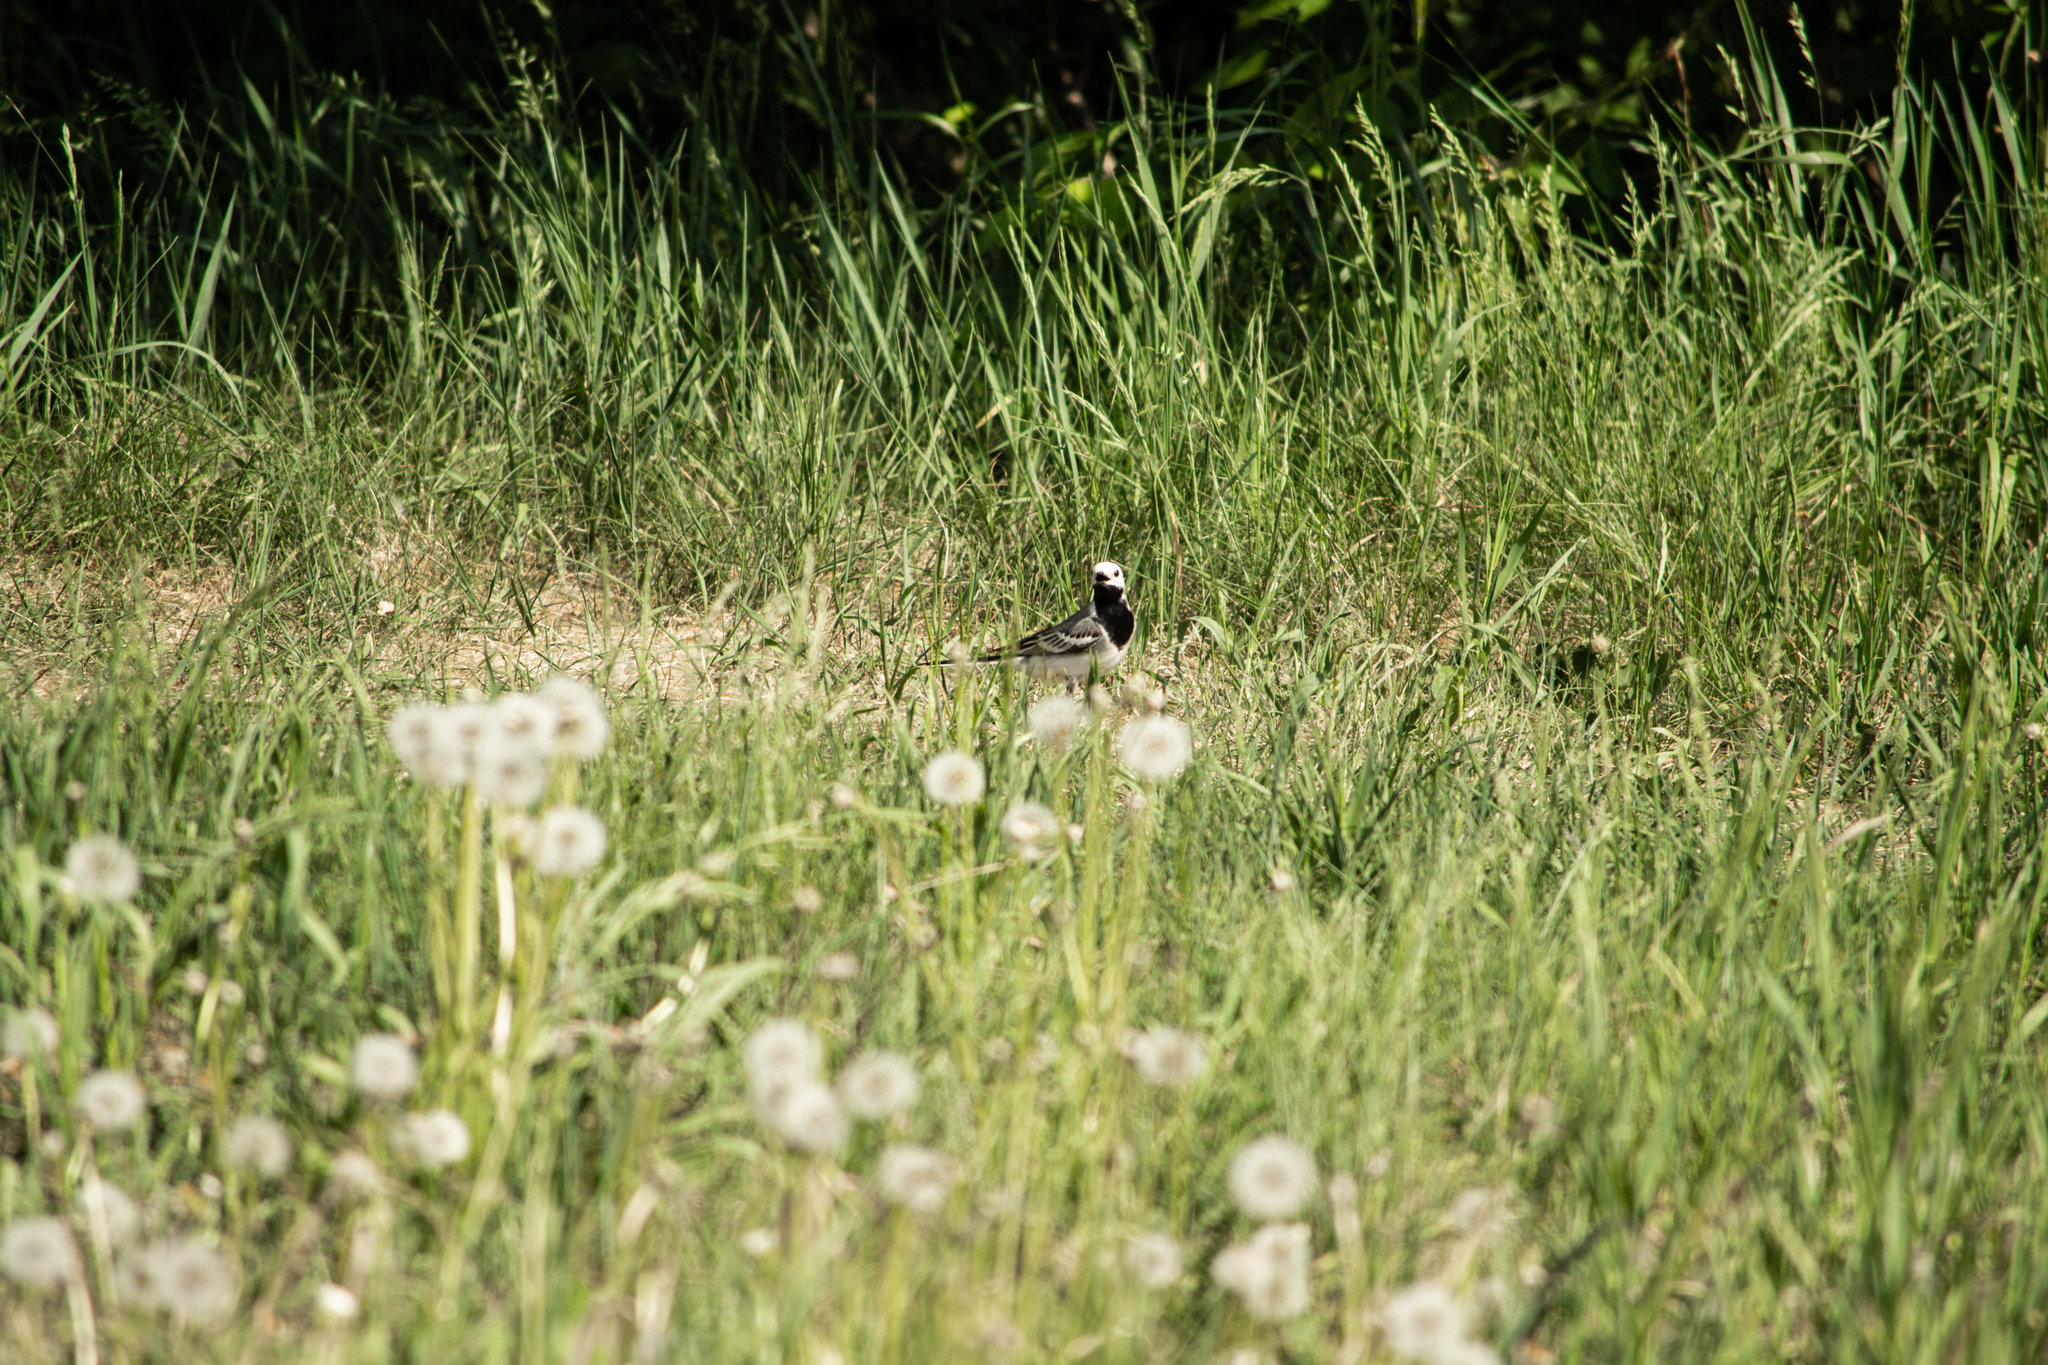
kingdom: Animalia
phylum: Chordata
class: Aves
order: Passeriformes
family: Motacillidae
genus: Motacilla
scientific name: Motacilla alba
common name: White wagtail
